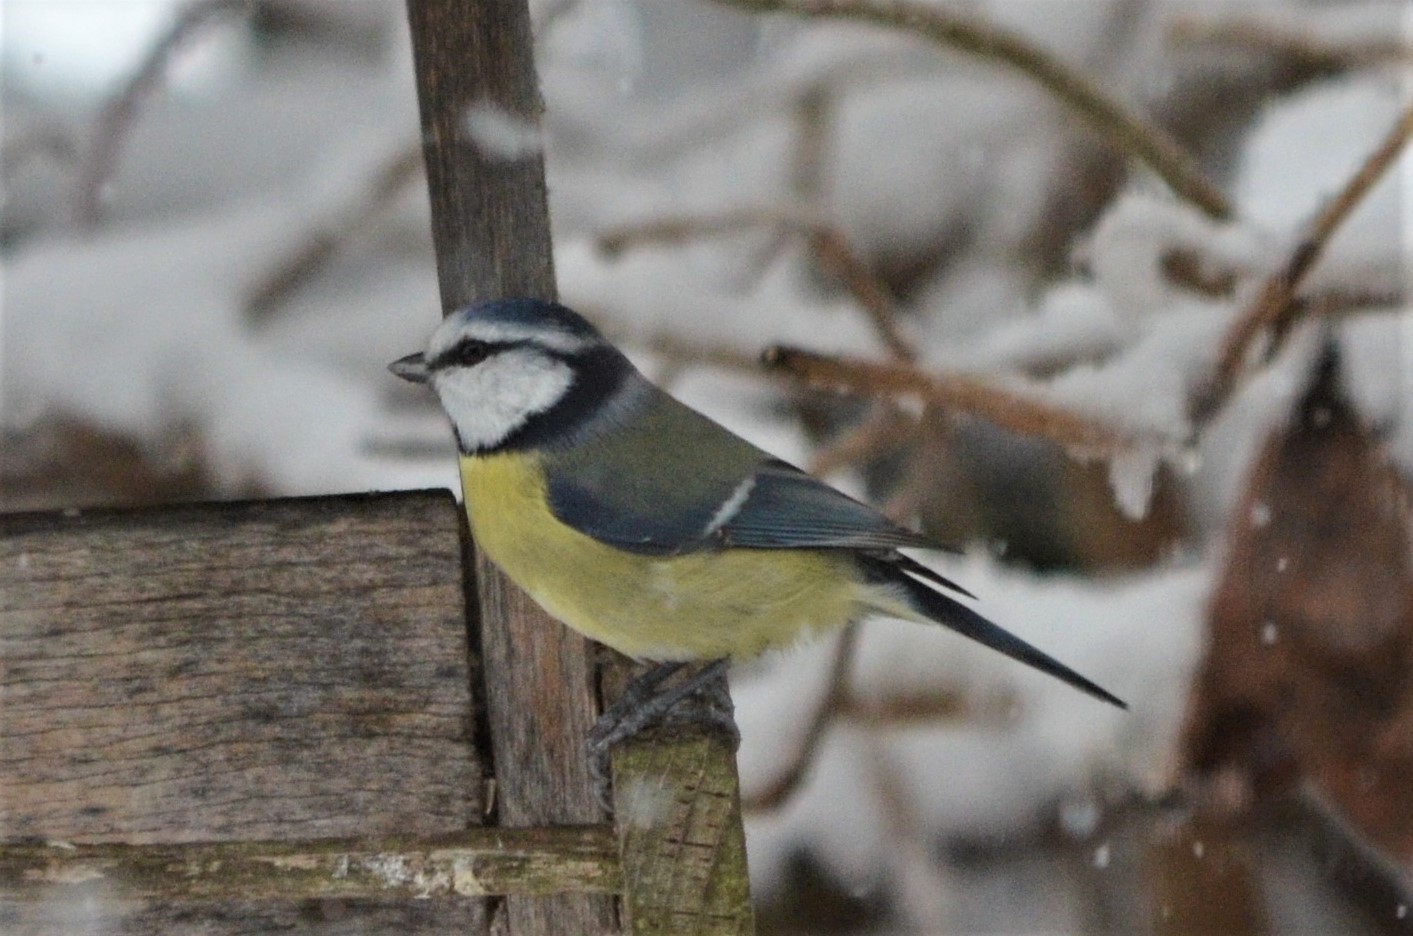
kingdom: Animalia
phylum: Chordata
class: Aves
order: Passeriformes
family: Paridae
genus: Cyanistes
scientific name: Cyanistes caeruleus
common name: Eurasian blue tit
